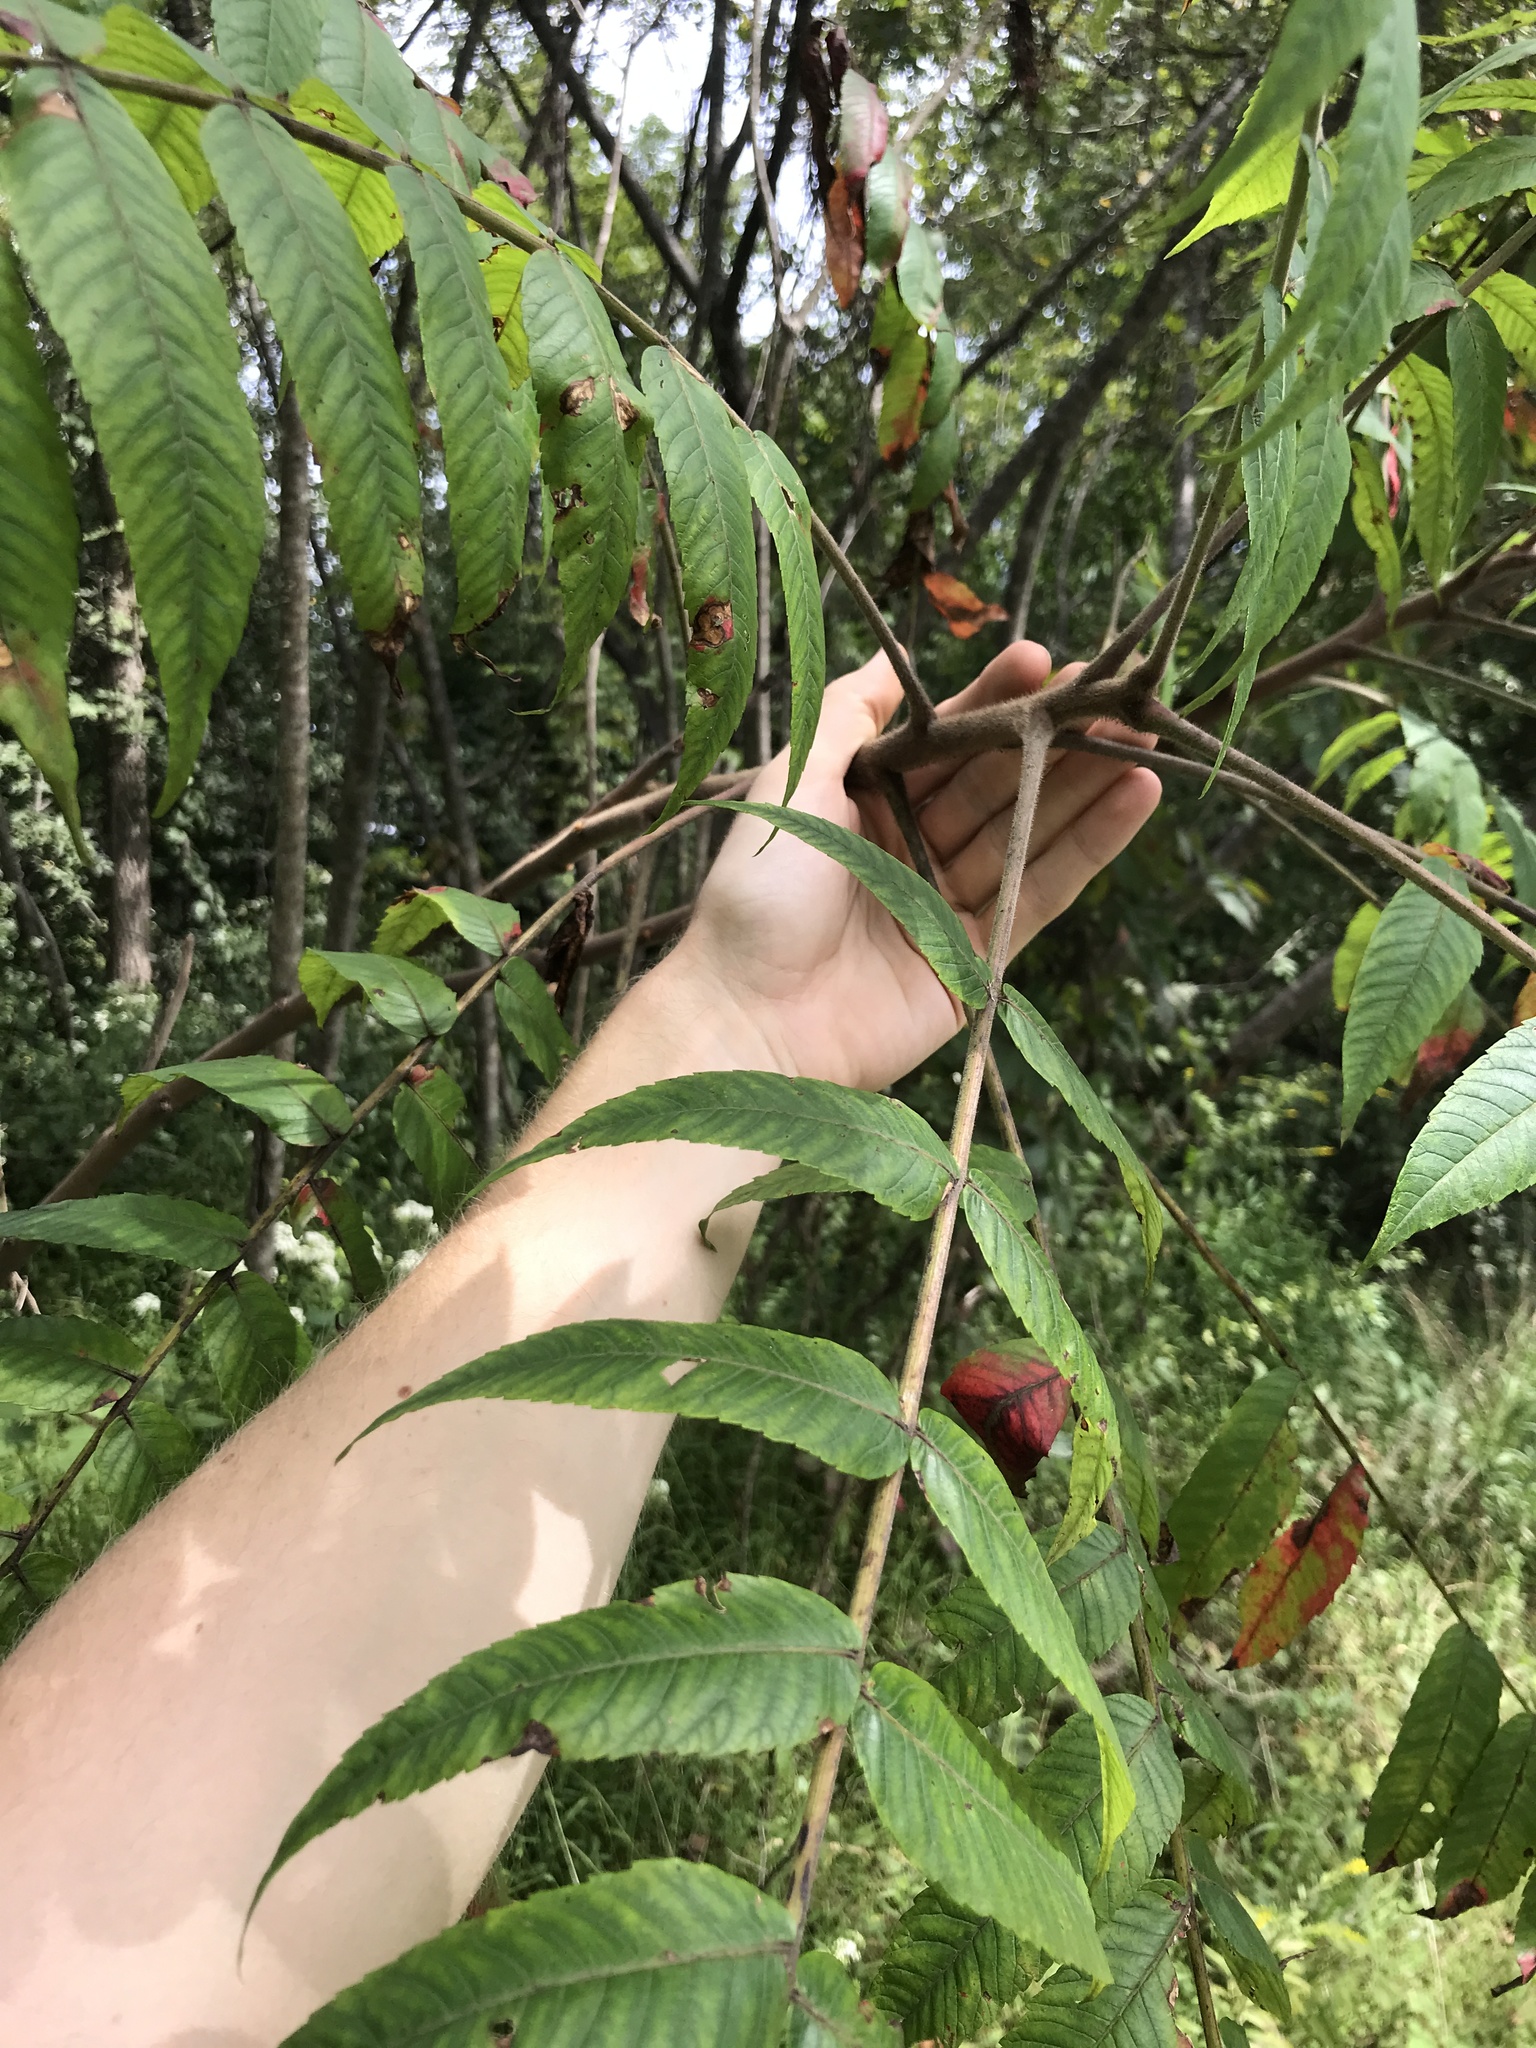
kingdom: Plantae
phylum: Tracheophyta
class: Magnoliopsida
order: Sapindales
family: Anacardiaceae
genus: Rhus
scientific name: Rhus typhina
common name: Staghorn sumac
